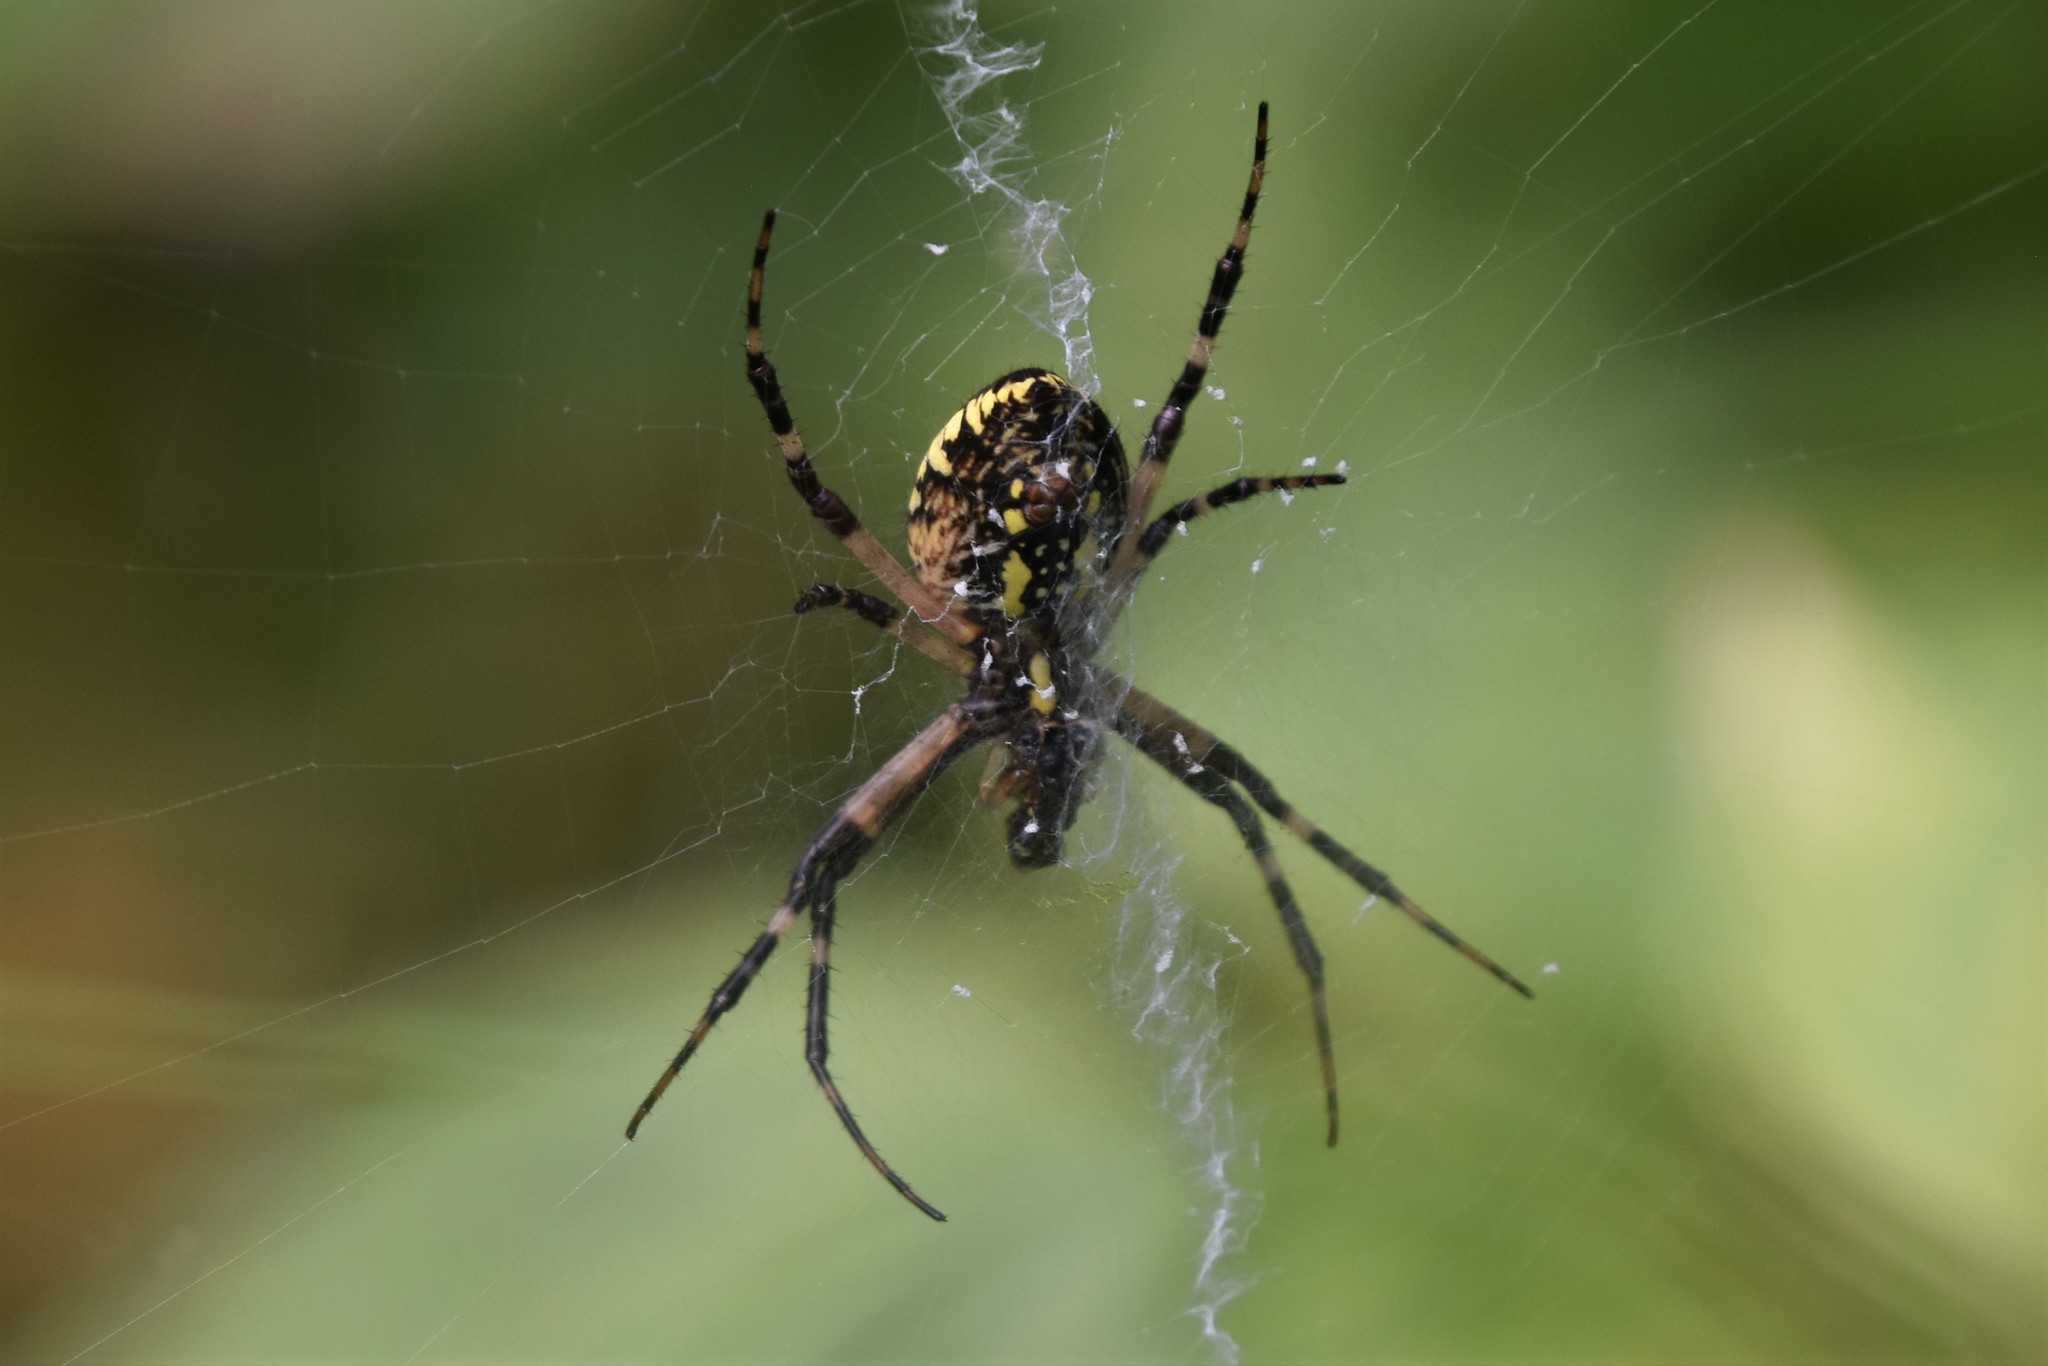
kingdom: Animalia
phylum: Arthropoda
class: Arachnida
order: Araneae
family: Araneidae
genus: Argiope
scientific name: Argiope aurantia
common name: Orb weavers
